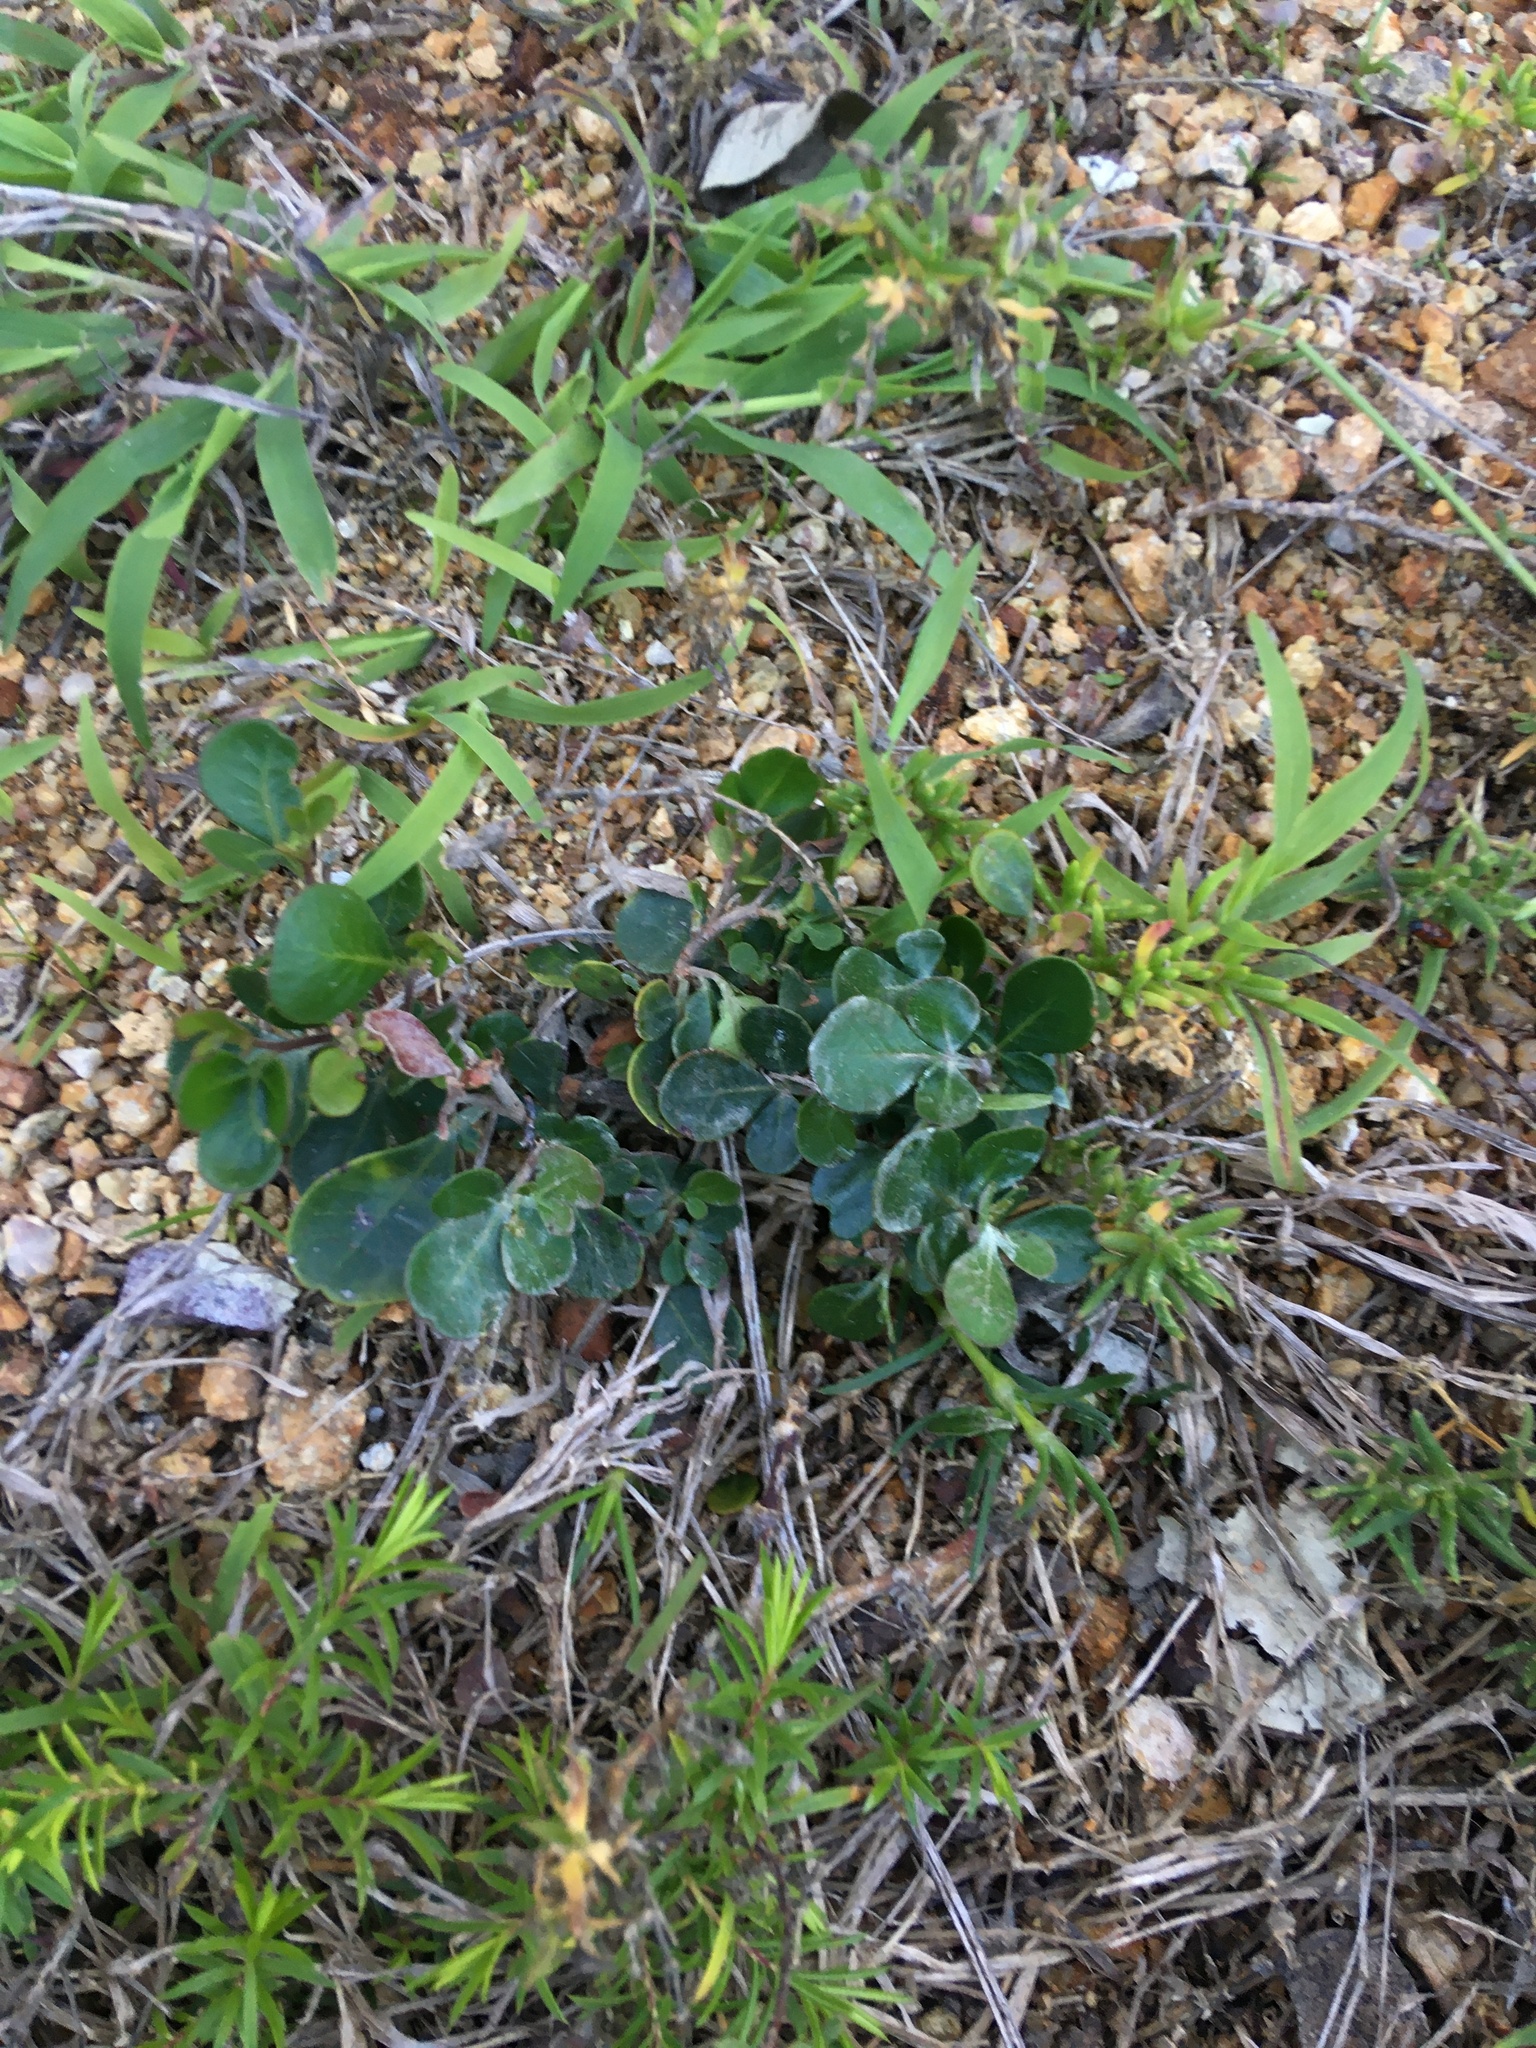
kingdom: Plantae
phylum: Tracheophyta
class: Magnoliopsida
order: Sapindales
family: Anacardiaceae
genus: Searsia
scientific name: Searsia glauca
